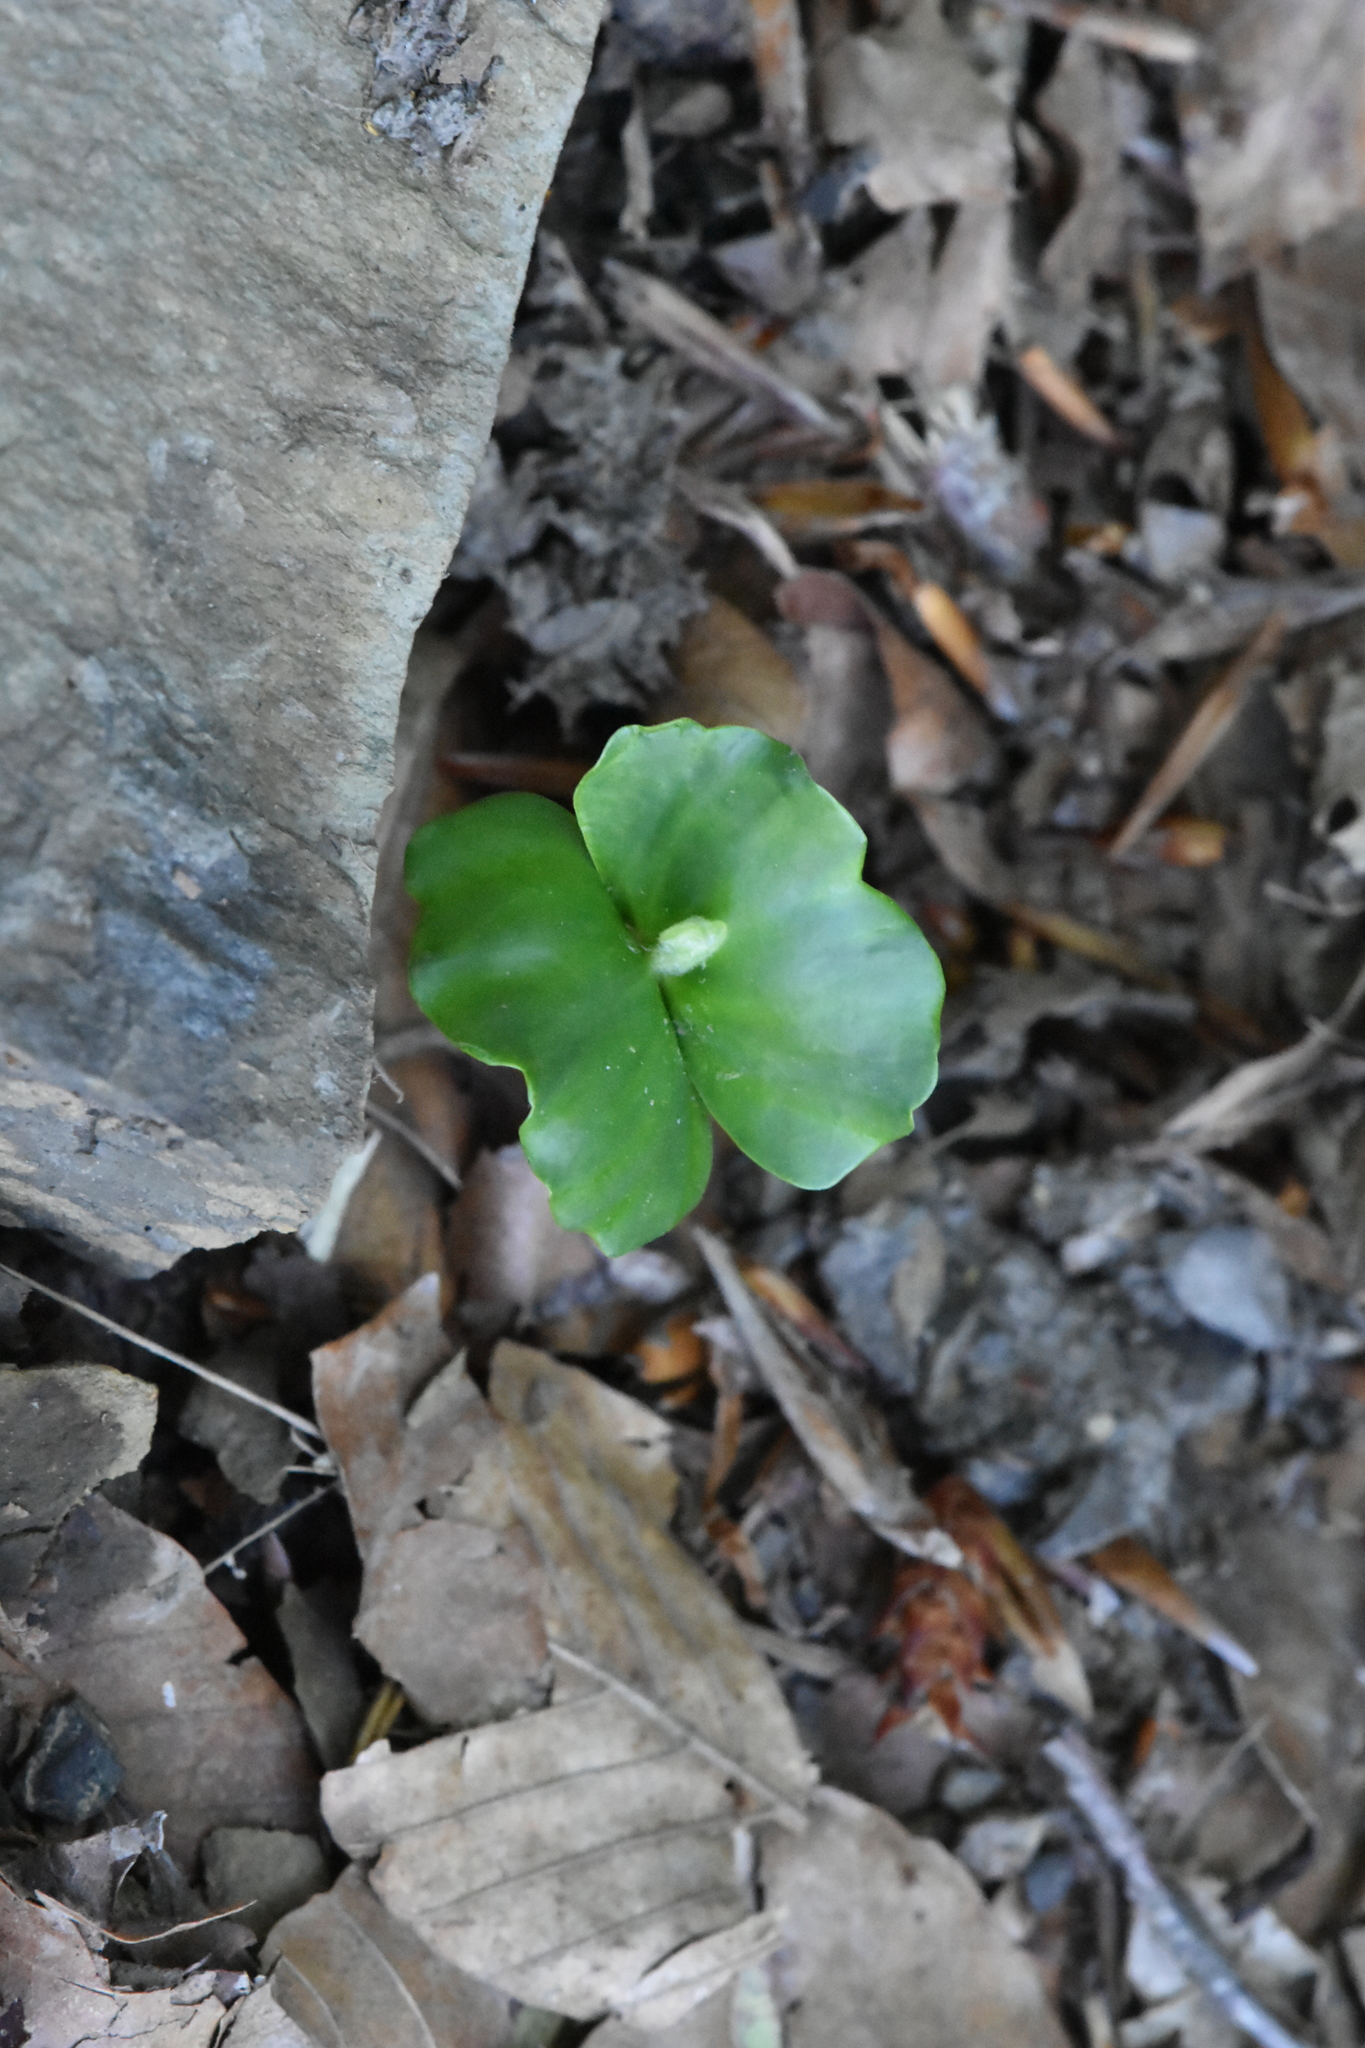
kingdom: Plantae
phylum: Tracheophyta
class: Magnoliopsida
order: Fagales
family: Fagaceae
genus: Fagus
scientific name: Fagus orientalis
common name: Oriental beech
